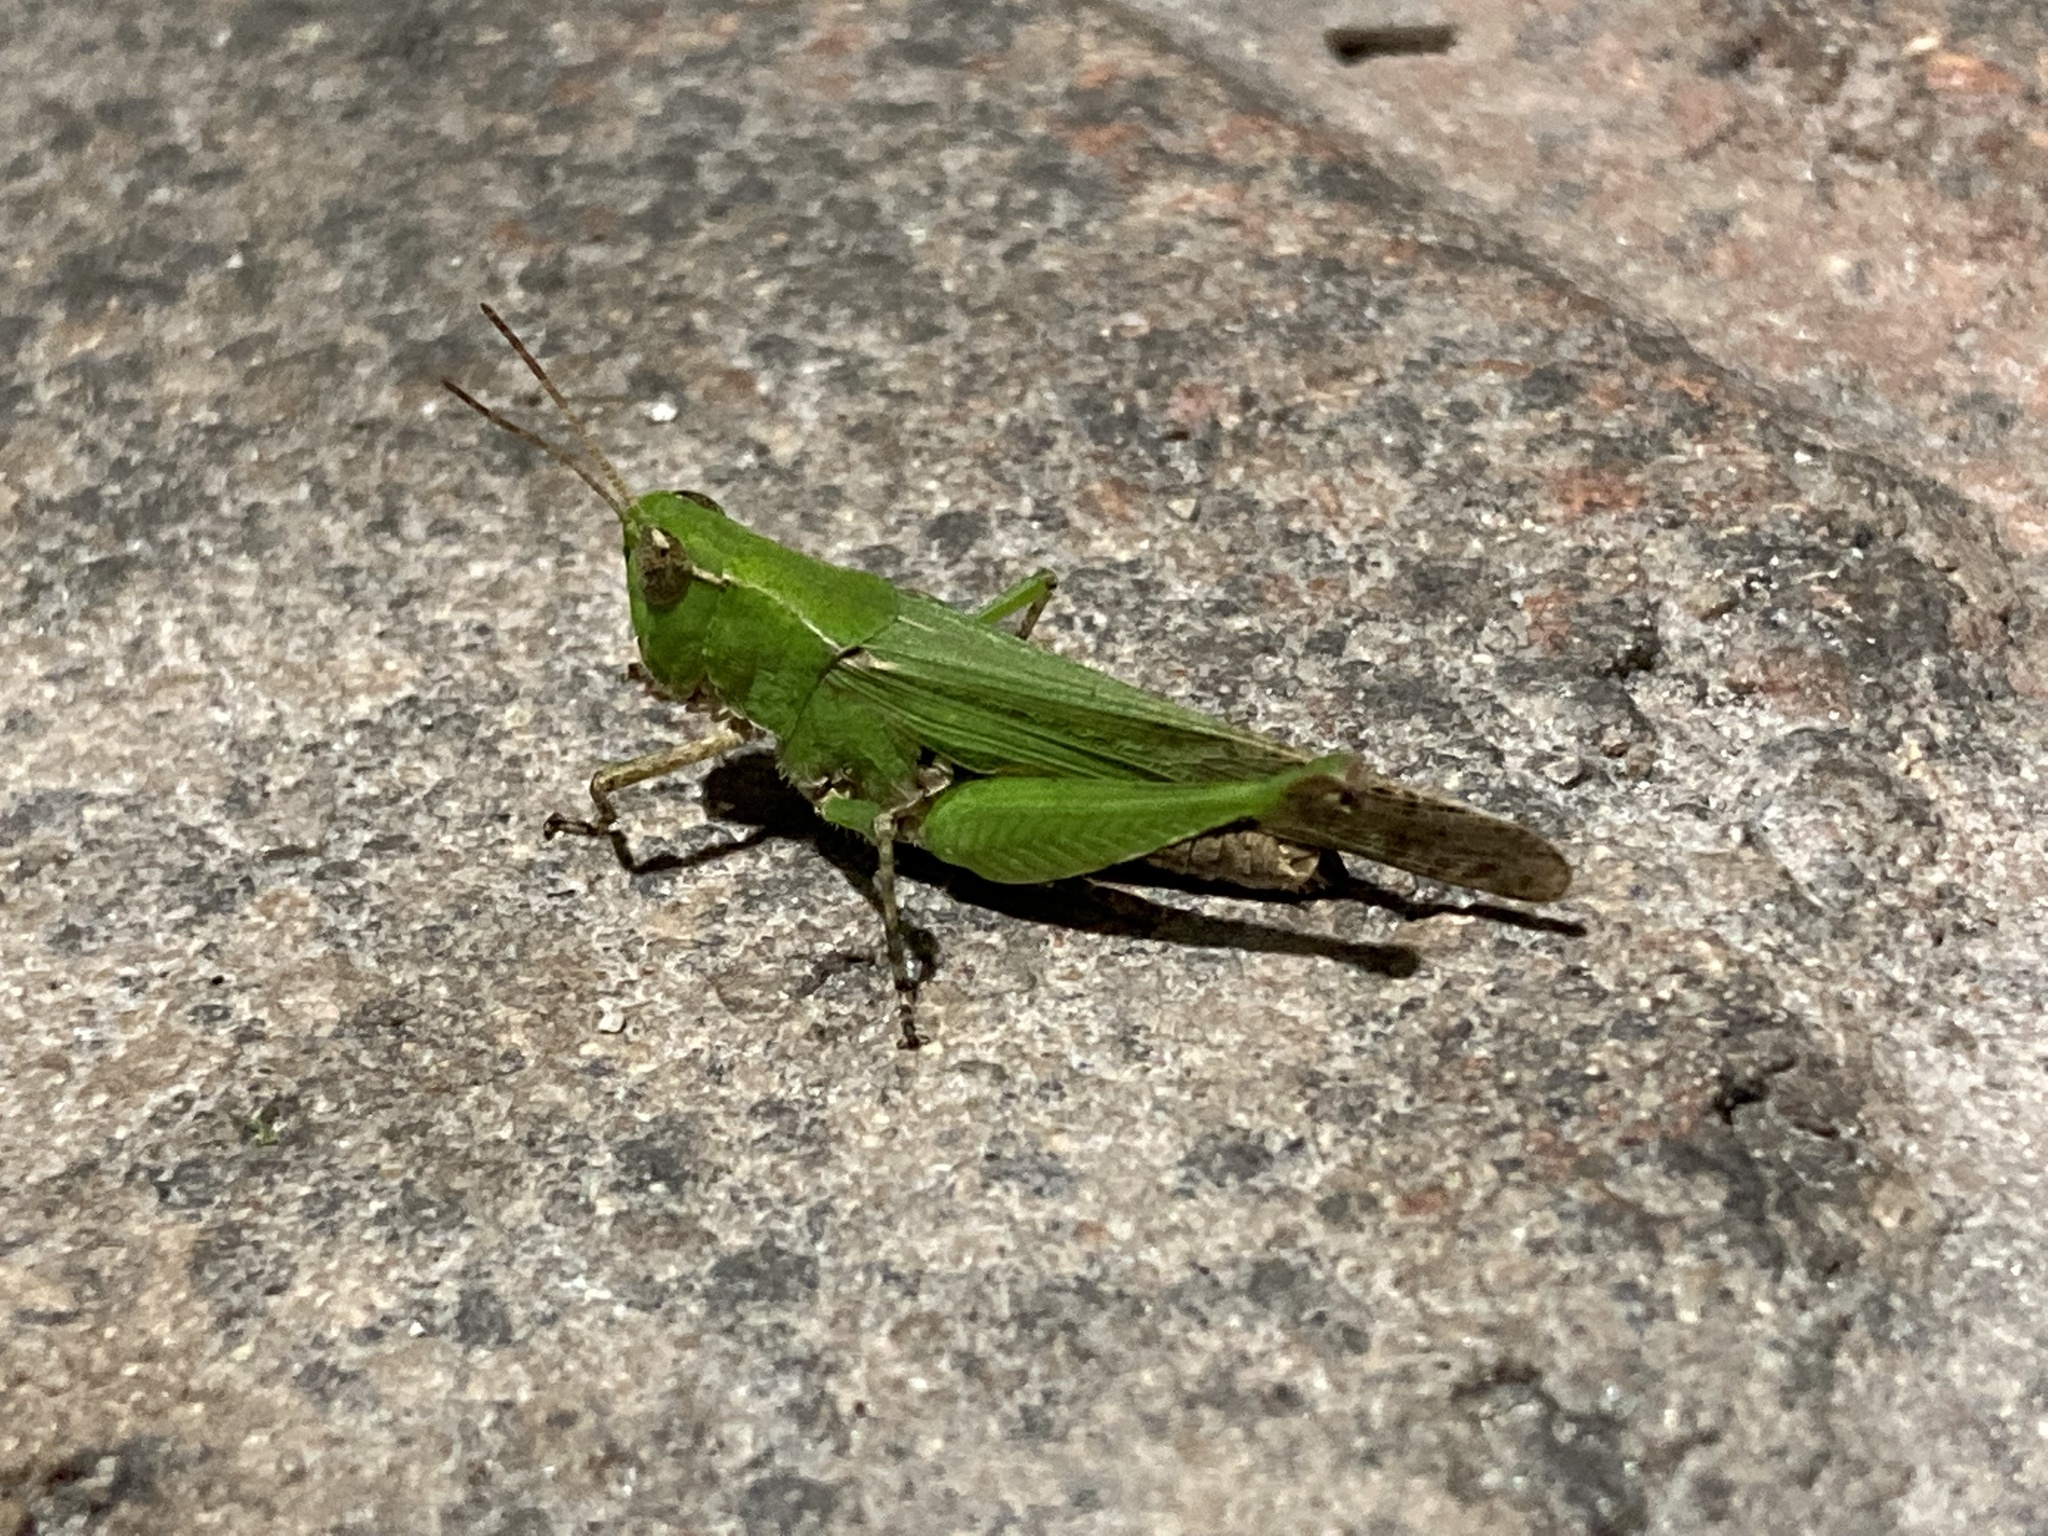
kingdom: Animalia
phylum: Arthropoda
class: Insecta
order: Orthoptera
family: Acrididae
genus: Orphulella
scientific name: Orphulella punctata
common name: Slant-faced grasshopper
